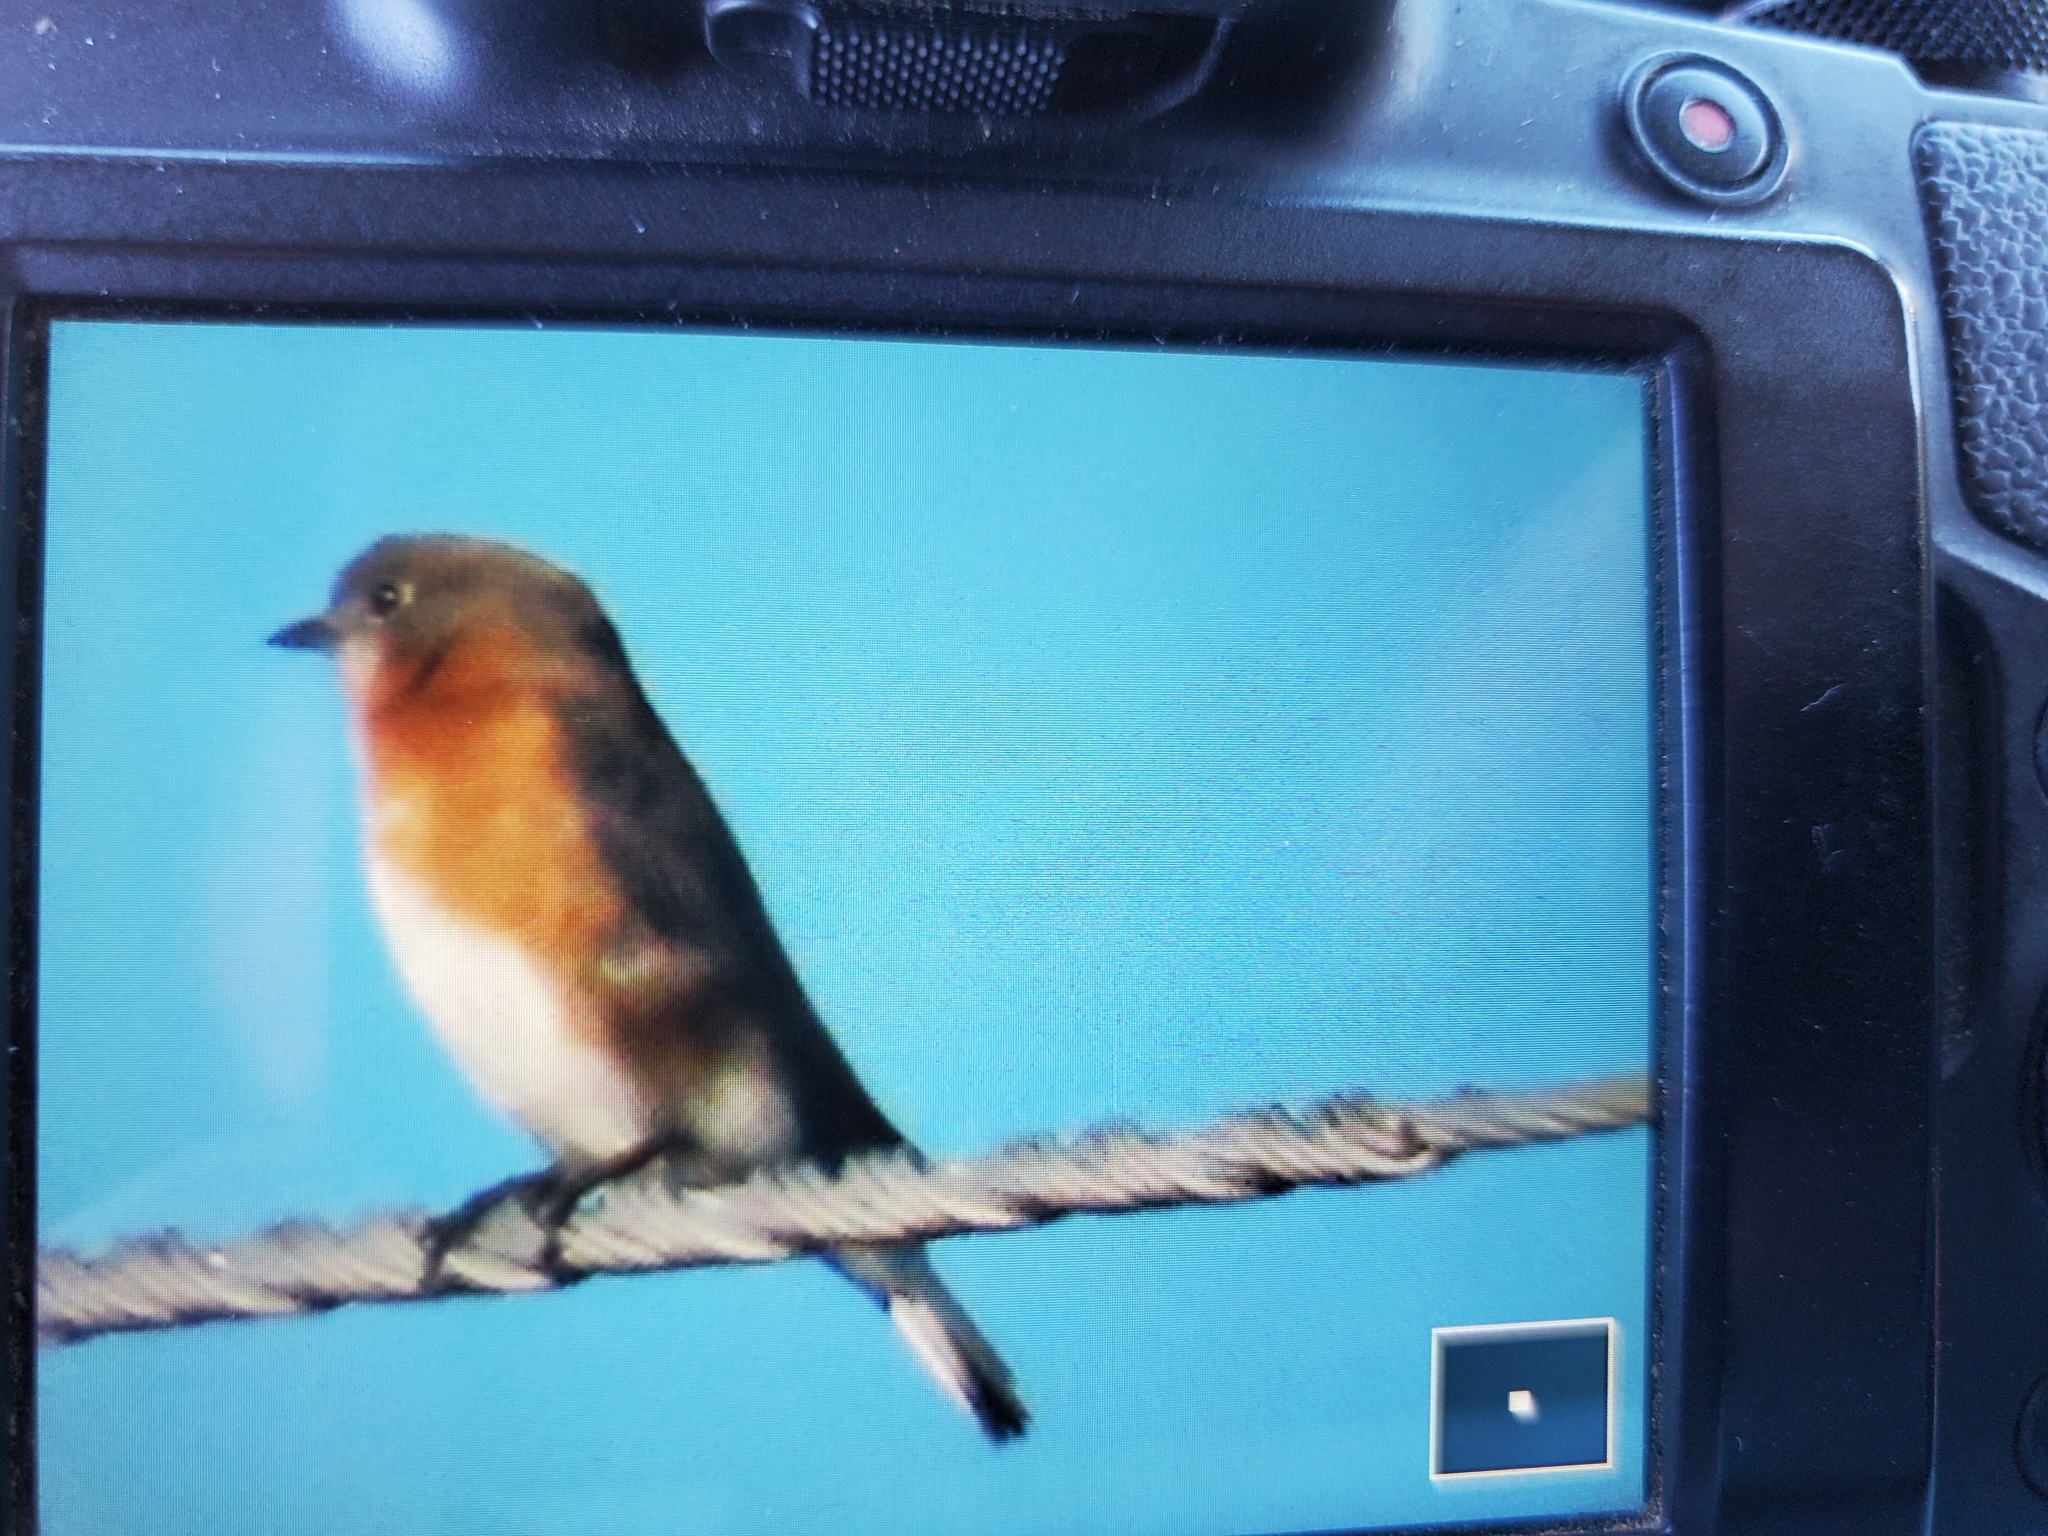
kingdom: Animalia
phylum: Chordata
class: Aves
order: Passeriformes
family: Turdidae
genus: Sialia
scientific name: Sialia sialis
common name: Eastern bluebird
